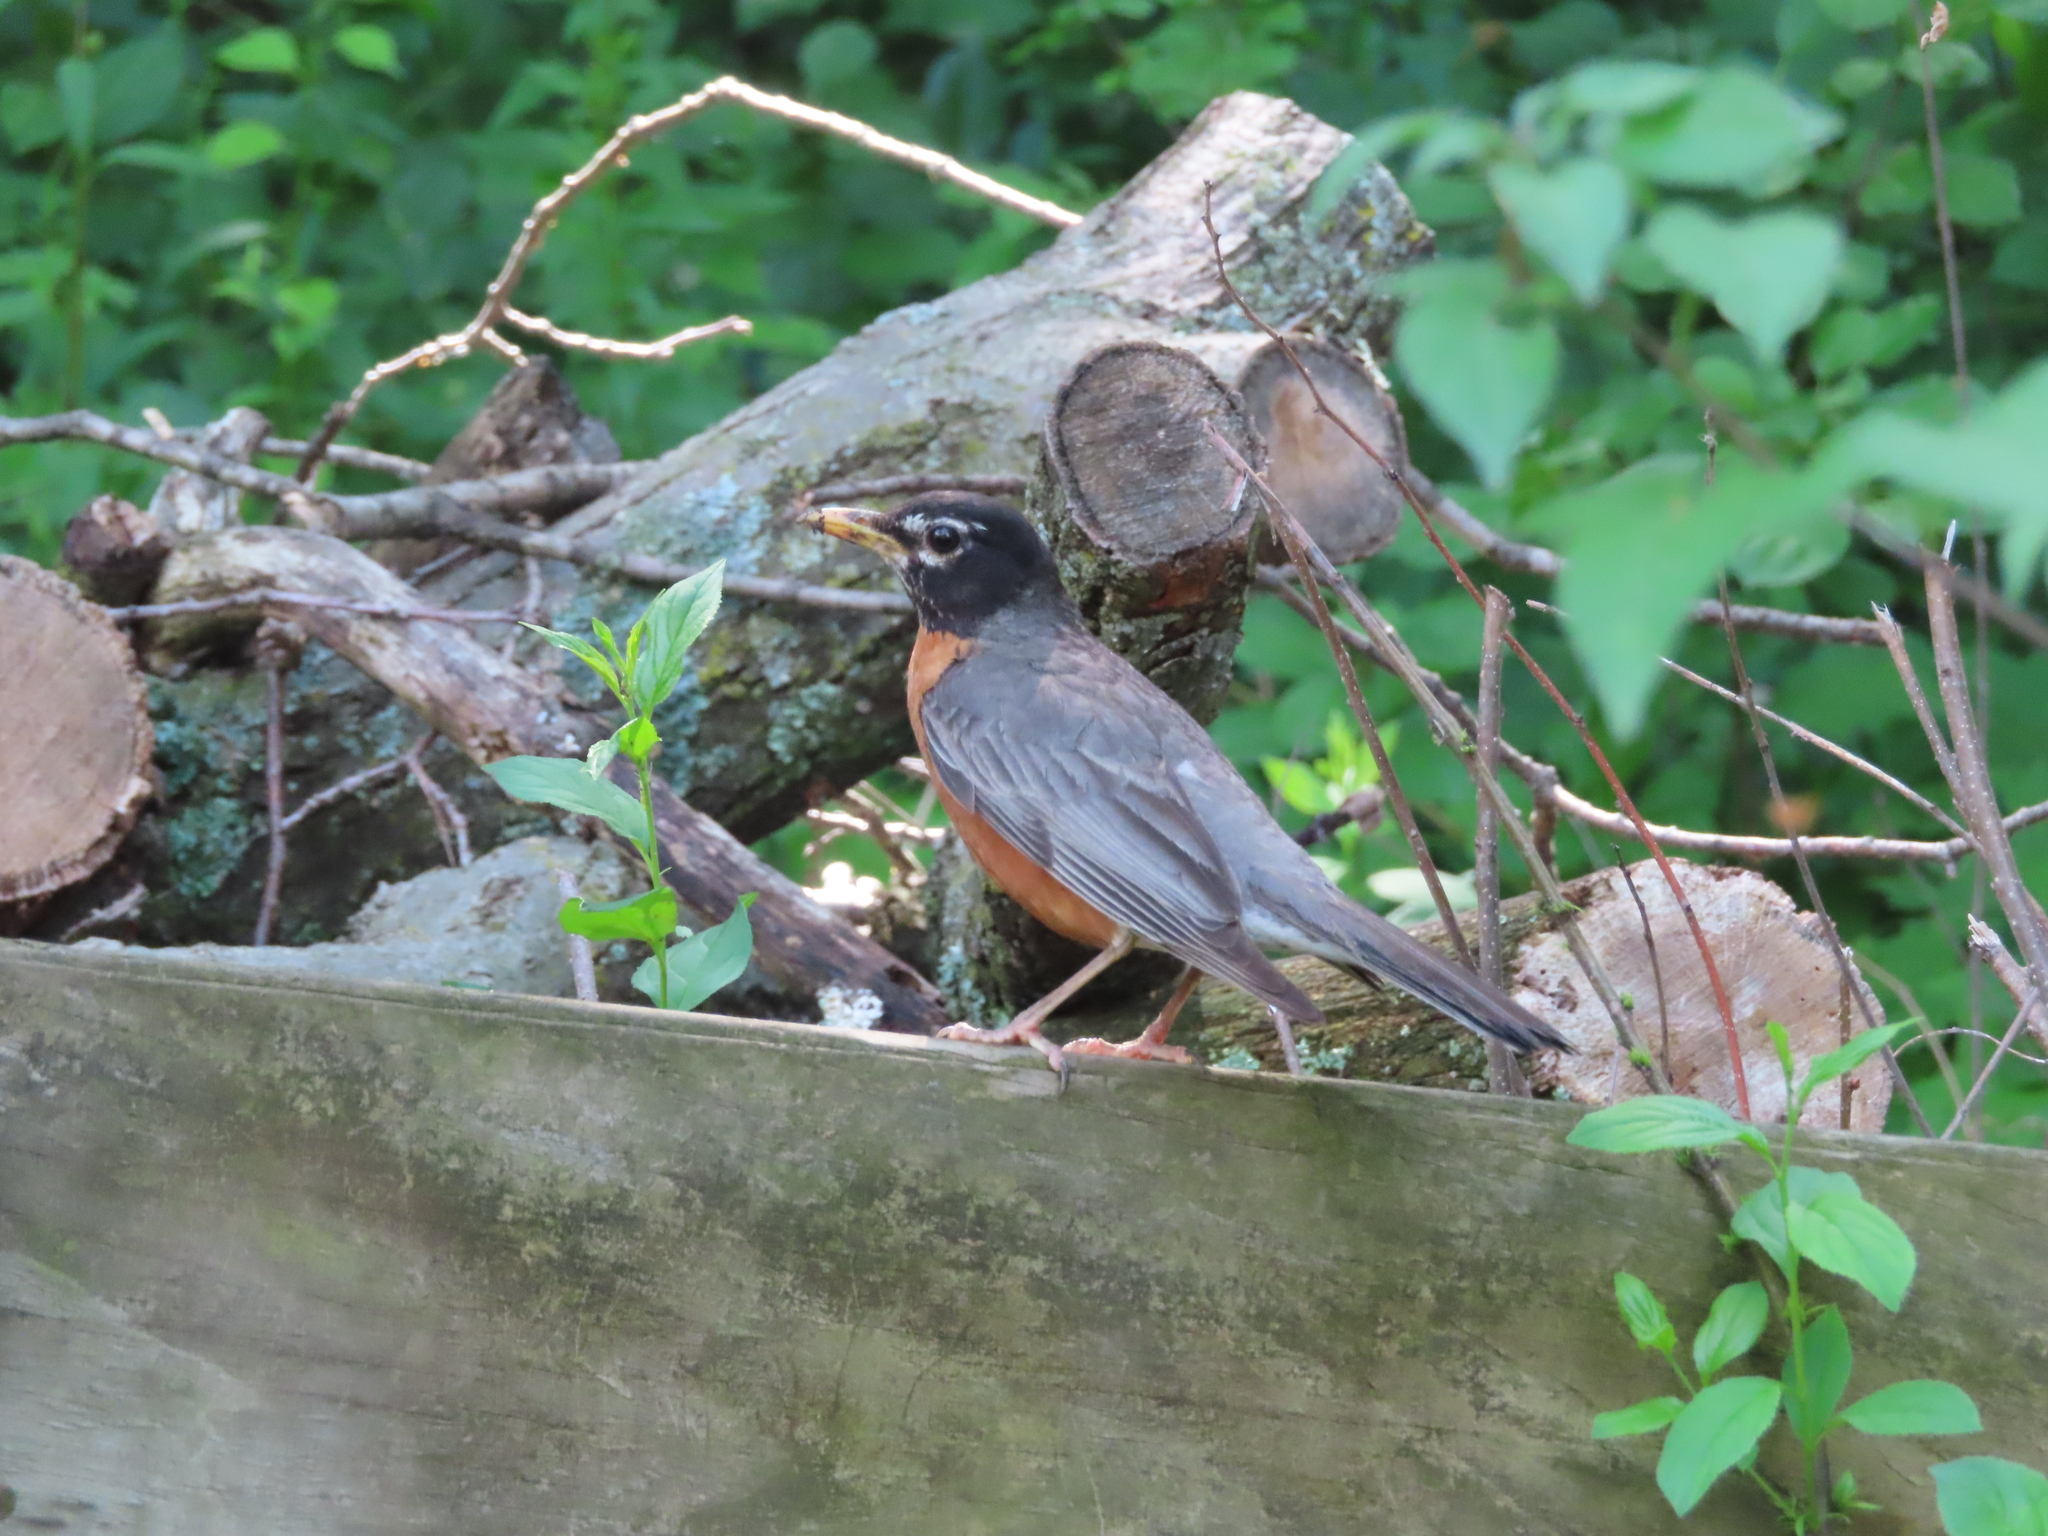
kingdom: Animalia
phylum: Chordata
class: Aves
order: Passeriformes
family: Turdidae
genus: Turdus
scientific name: Turdus migratorius
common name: American robin
